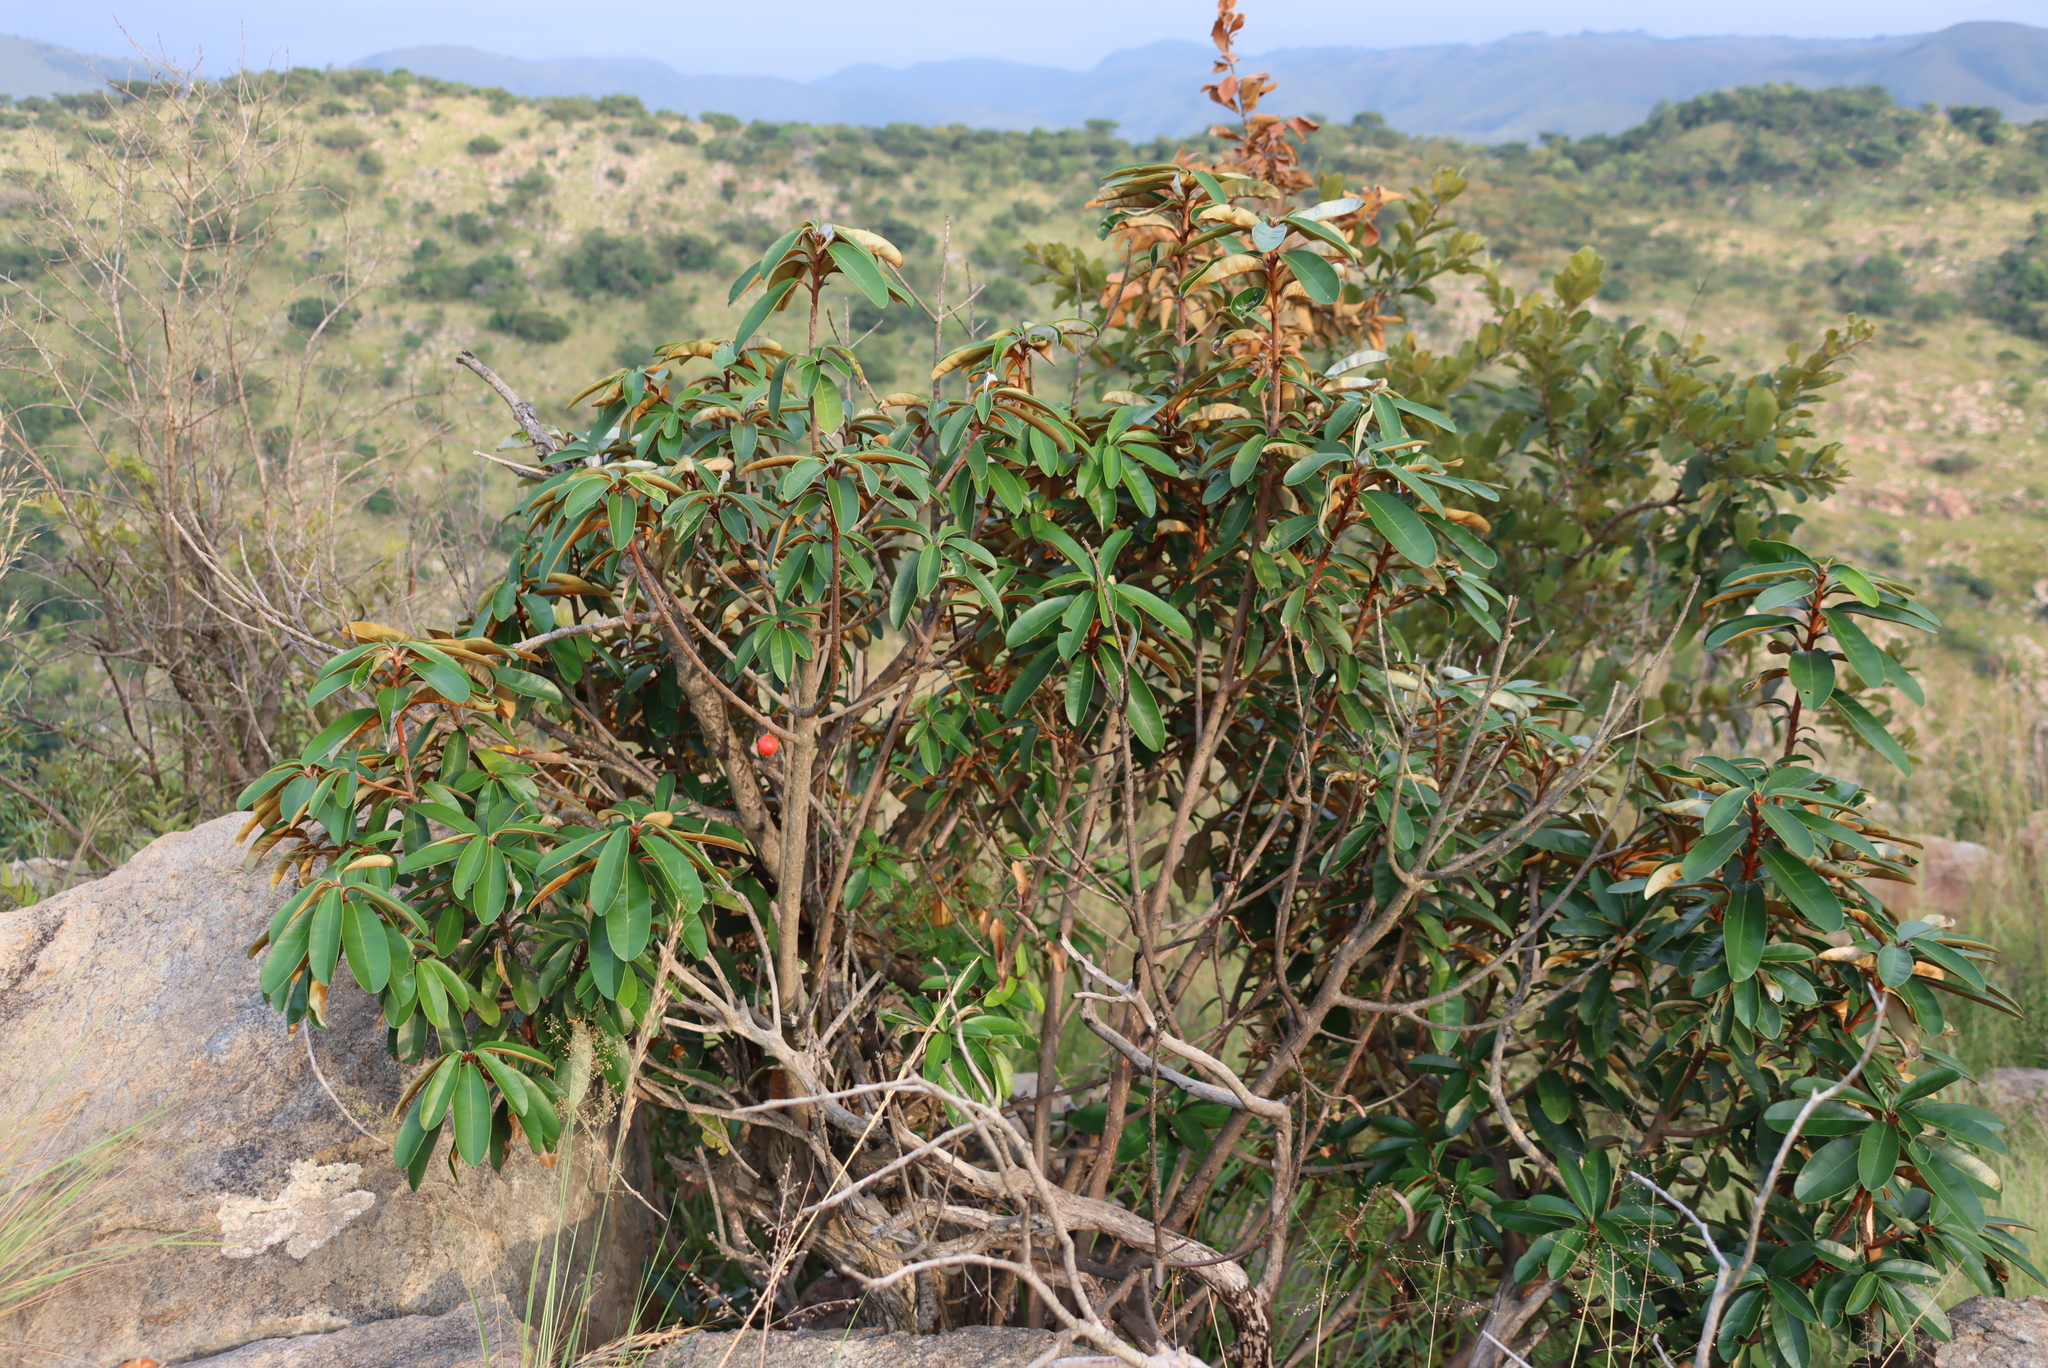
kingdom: Plantae
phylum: Tracheophyta
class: Magnoliopsida
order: Ericales
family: Sapotaceae
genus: Englerophytum
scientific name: Englerophytum magalismontanum
